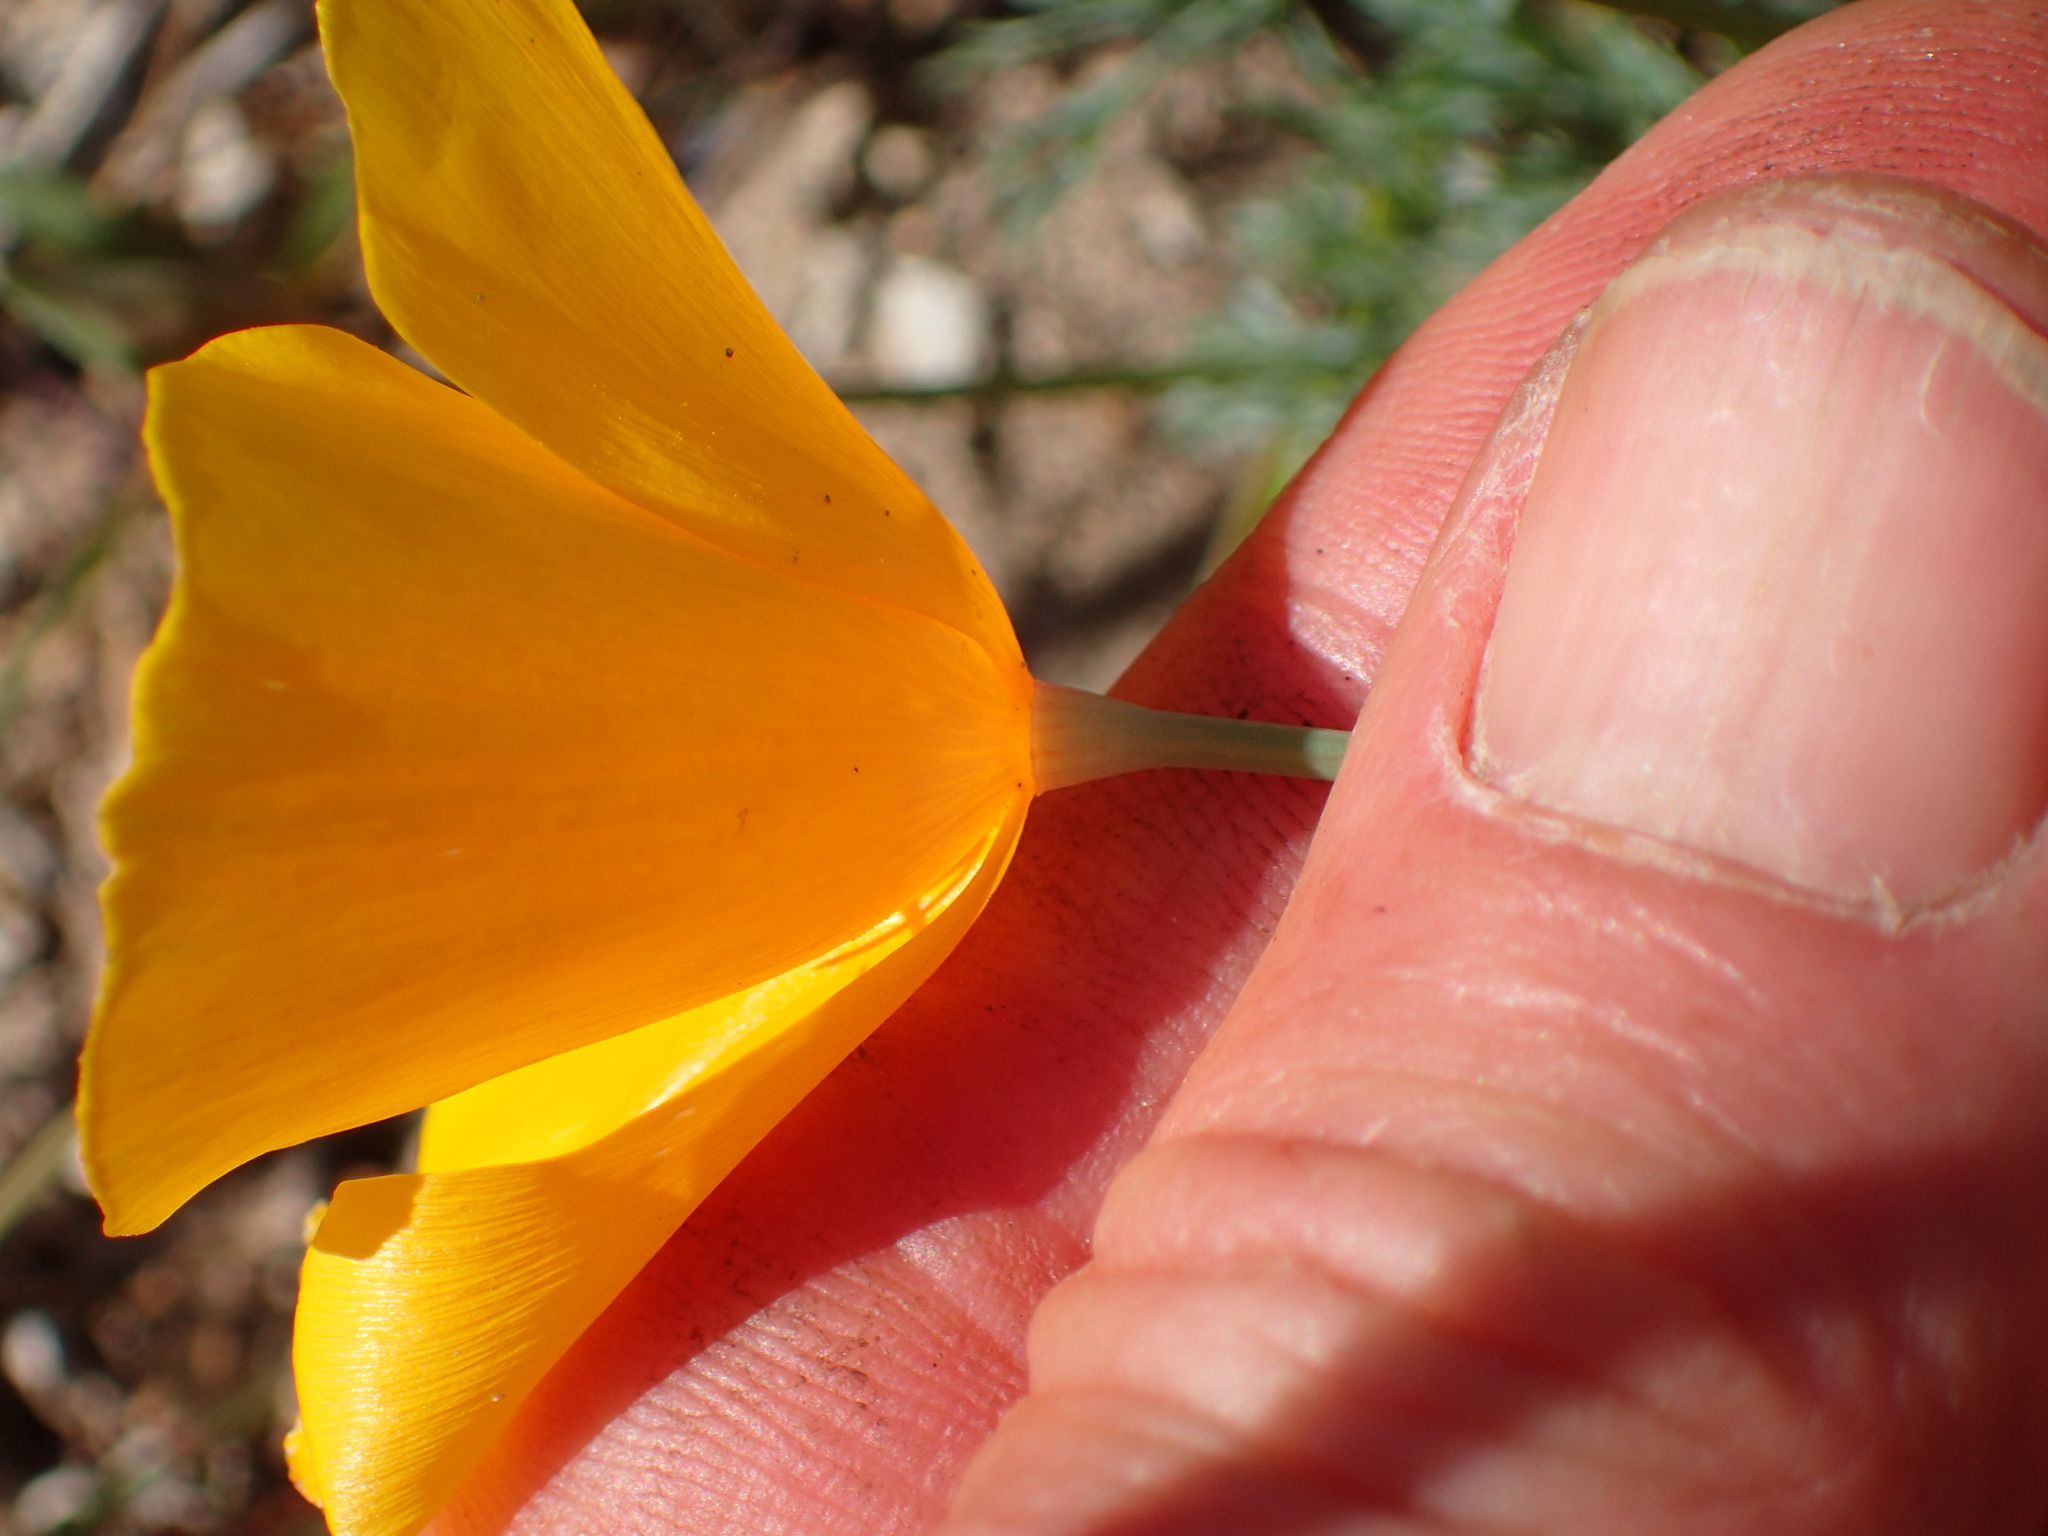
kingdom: Plantae
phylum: Tracheophyta
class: Magnoliopsida
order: Ranunculales
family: Papaveraceae
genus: Eschscholzia
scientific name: Eschscholzia caespitosa
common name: Tufted california-poppy
